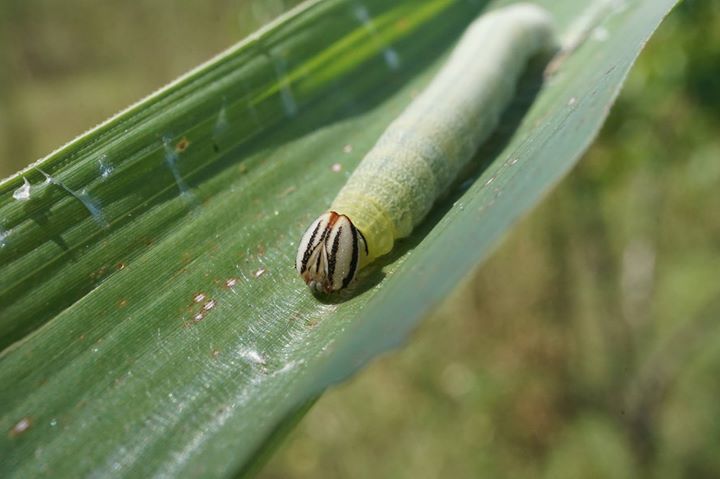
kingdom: Animalia
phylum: Arthropoda
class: Insecta
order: Lepidoptera
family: Hesperiidae
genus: Lerema
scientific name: Lerema accius
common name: Clouded skipper
